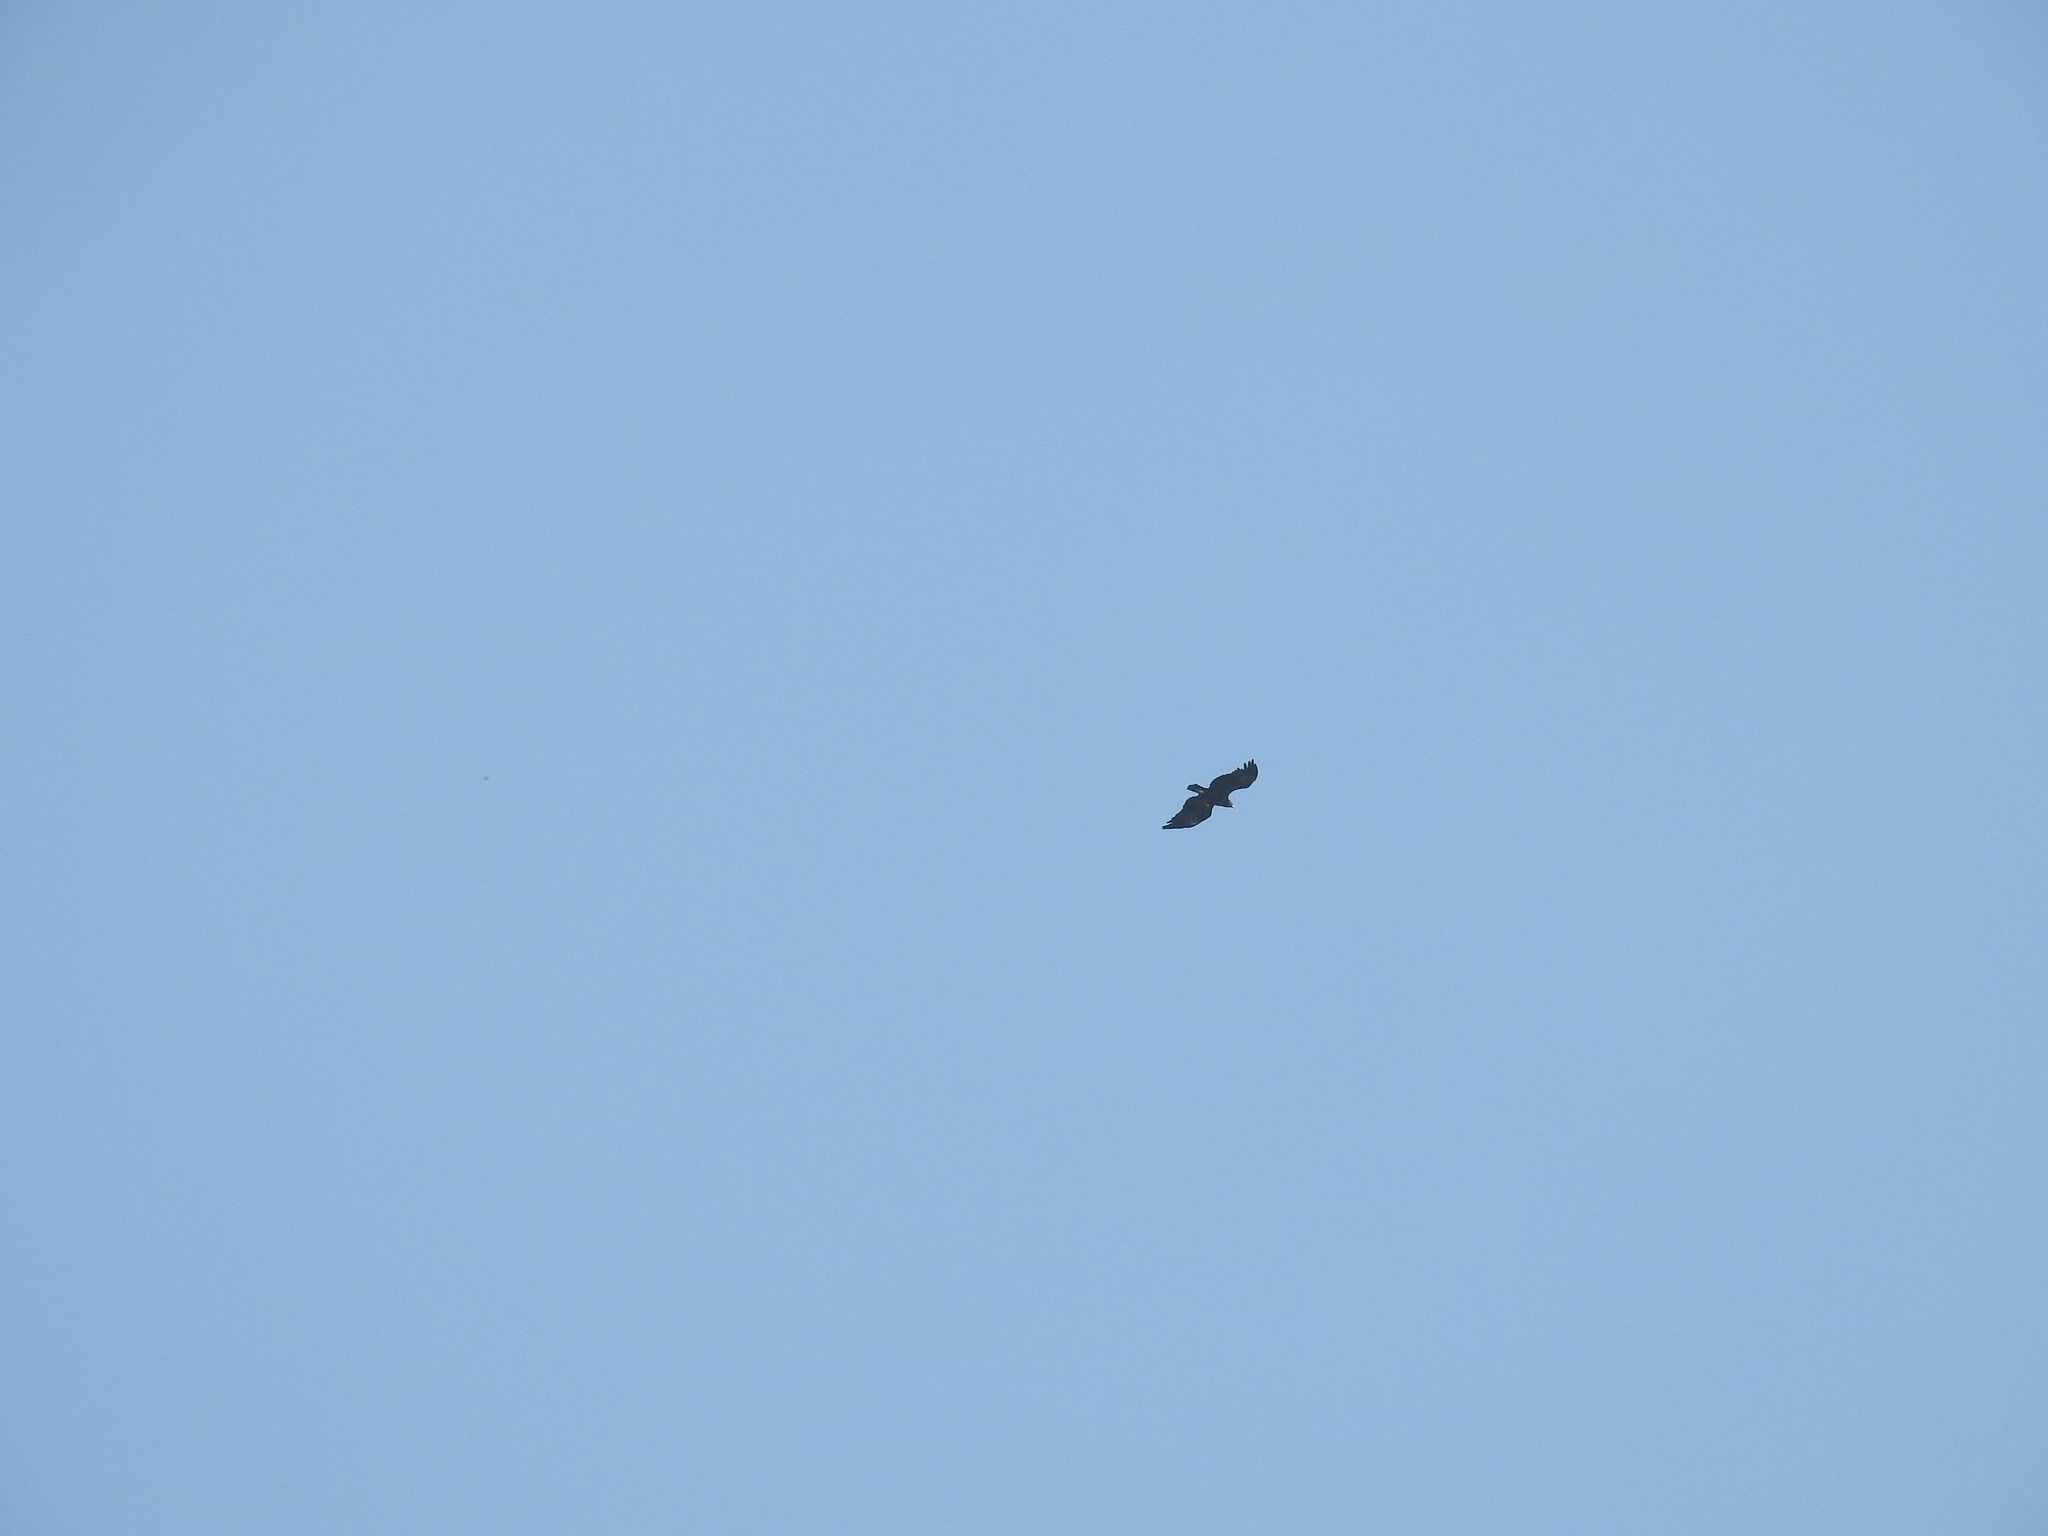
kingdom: Animalia
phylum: Chordata
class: Aves
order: Accipitriformes
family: Accipitridae
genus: Aquila
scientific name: Aquila clanga
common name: Greater spotted eagle
